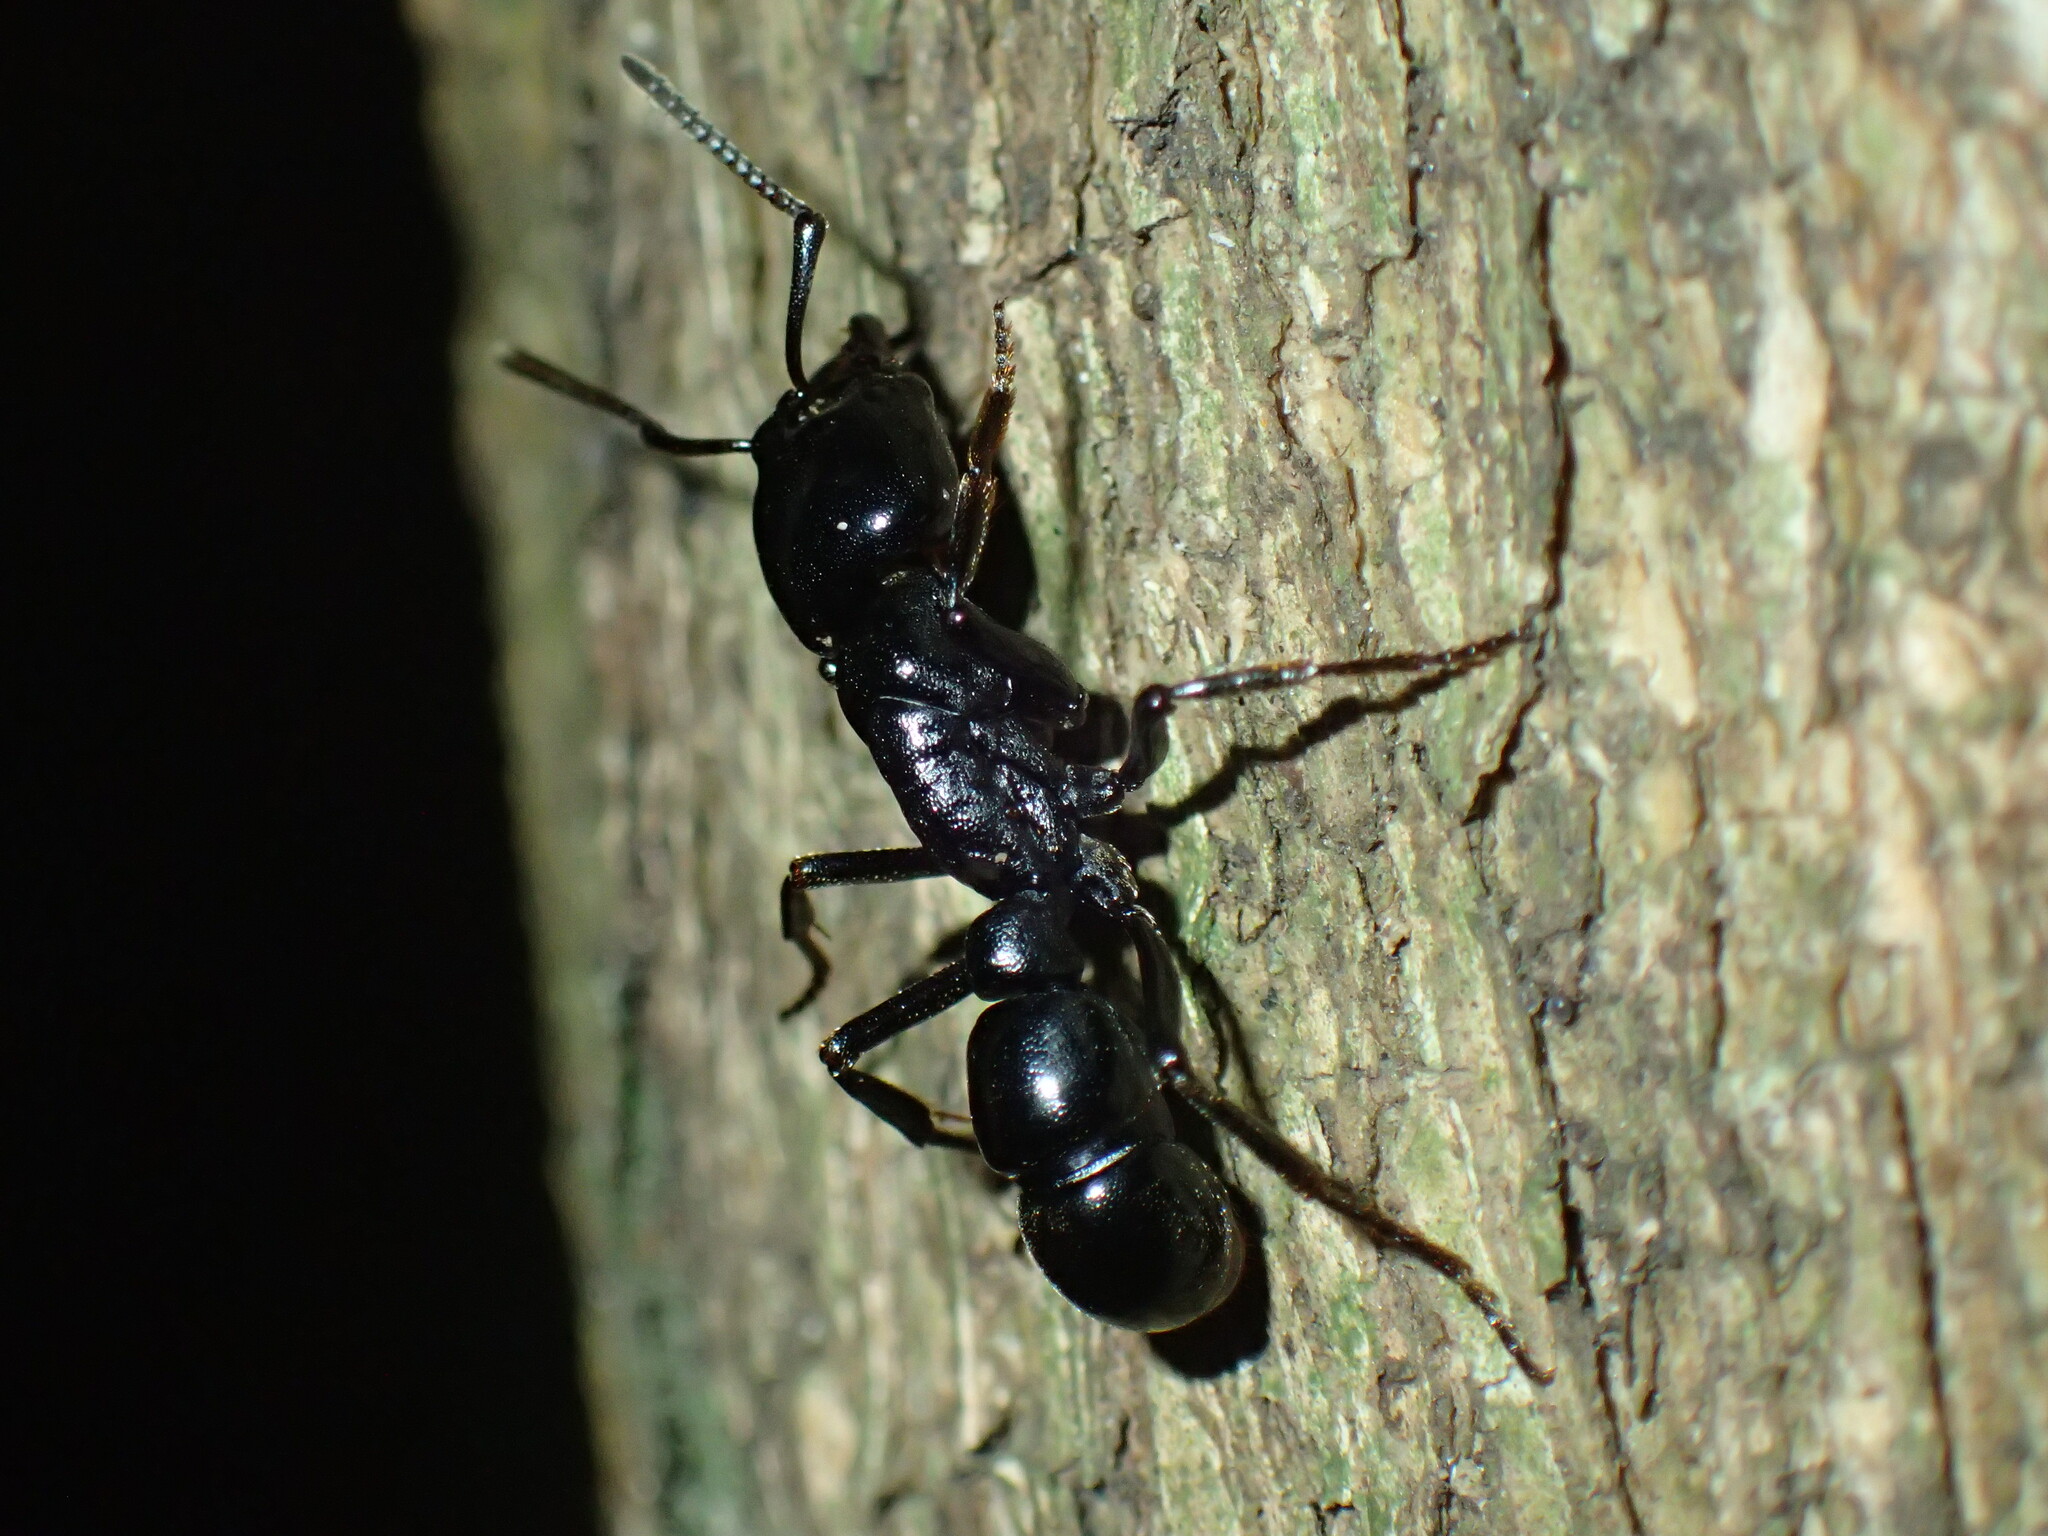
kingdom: Animalia
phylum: Arthropoda
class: Insecta
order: Hymenoptera
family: Formicidae
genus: Plectroctena
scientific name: Plectroctena mandibularis
